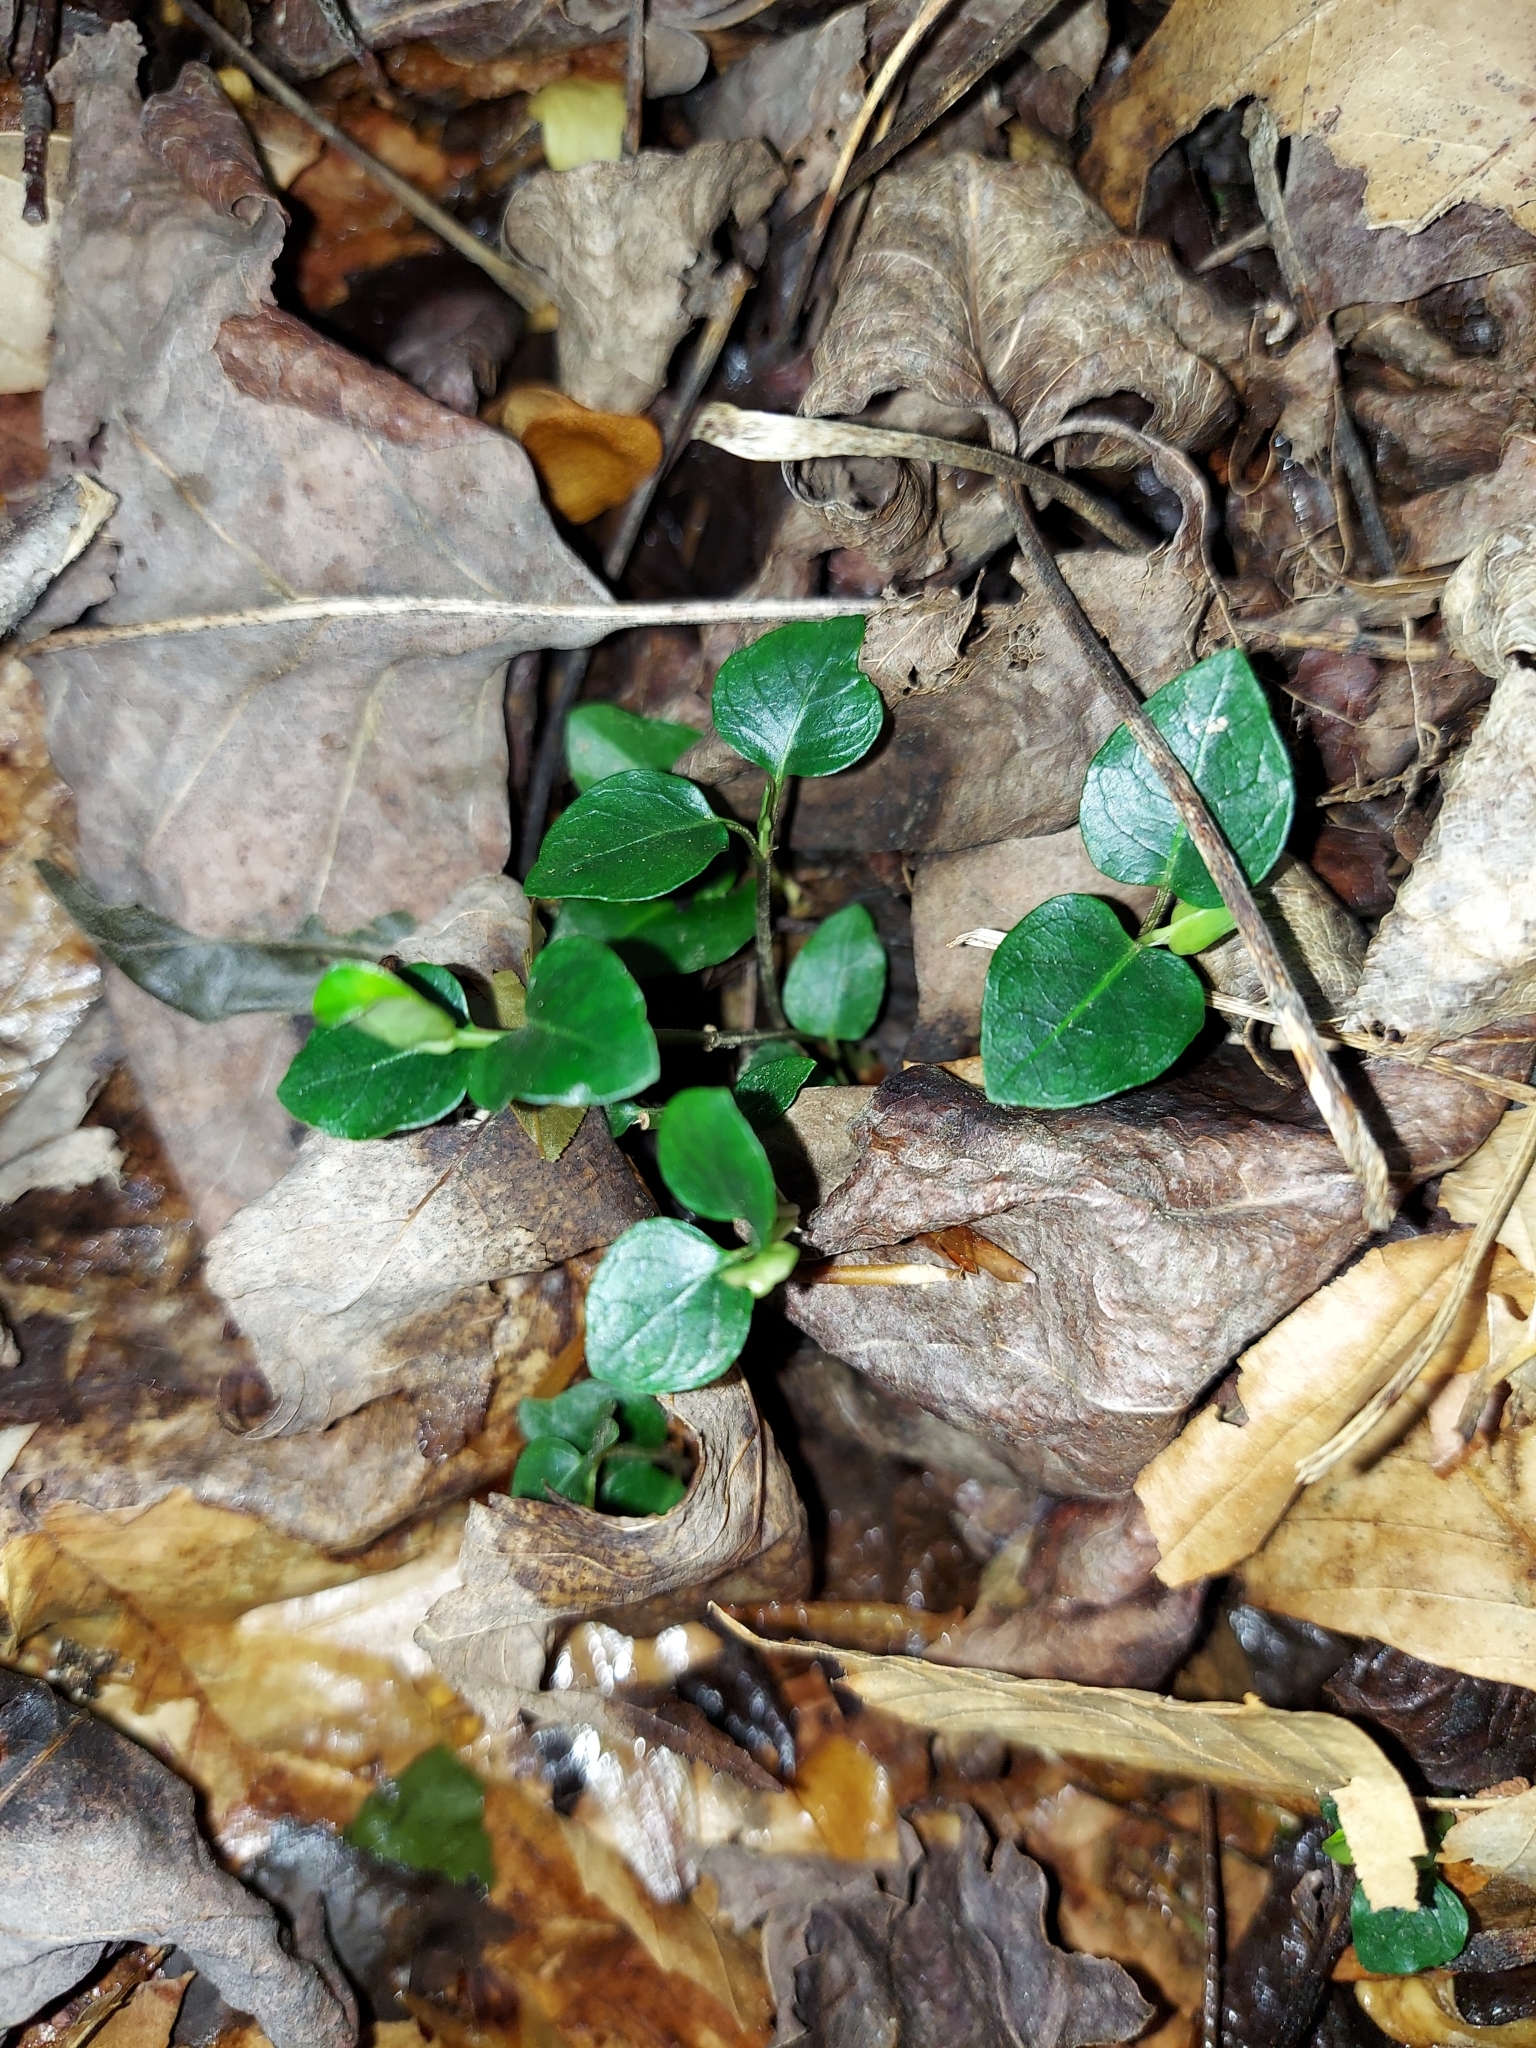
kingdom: Plantae
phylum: Tracheophyta
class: Magnoliopsida
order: Gentianales
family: Rubiaceae
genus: Mitchella
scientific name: Mitchella repens
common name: Partridge-berry
